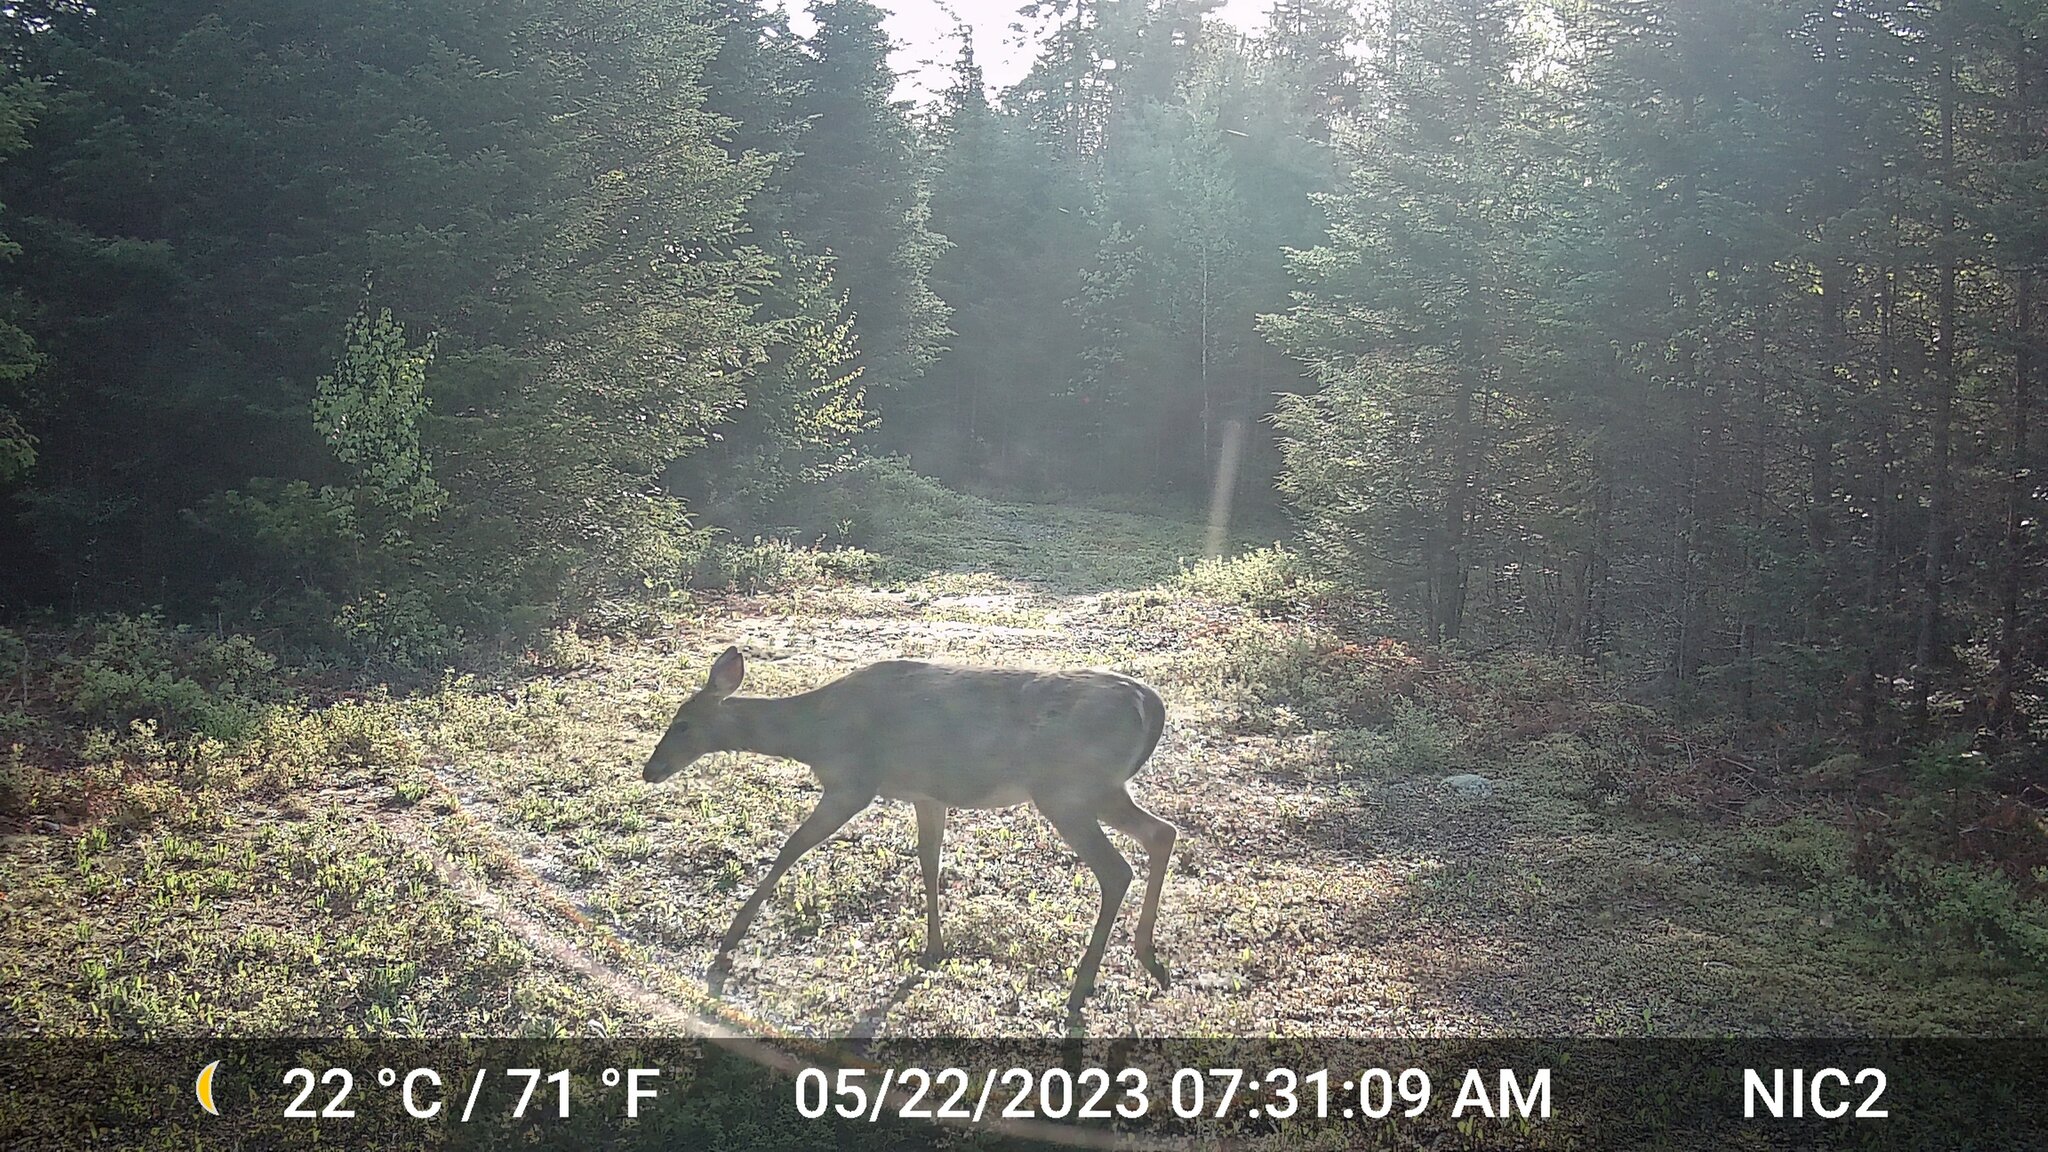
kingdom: Animalia
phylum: Chordata
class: Mammalia
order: Artiodactyla
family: Cervidae
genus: Odocoileus
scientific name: Odocoileus virginianus
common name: White-tailed deer
